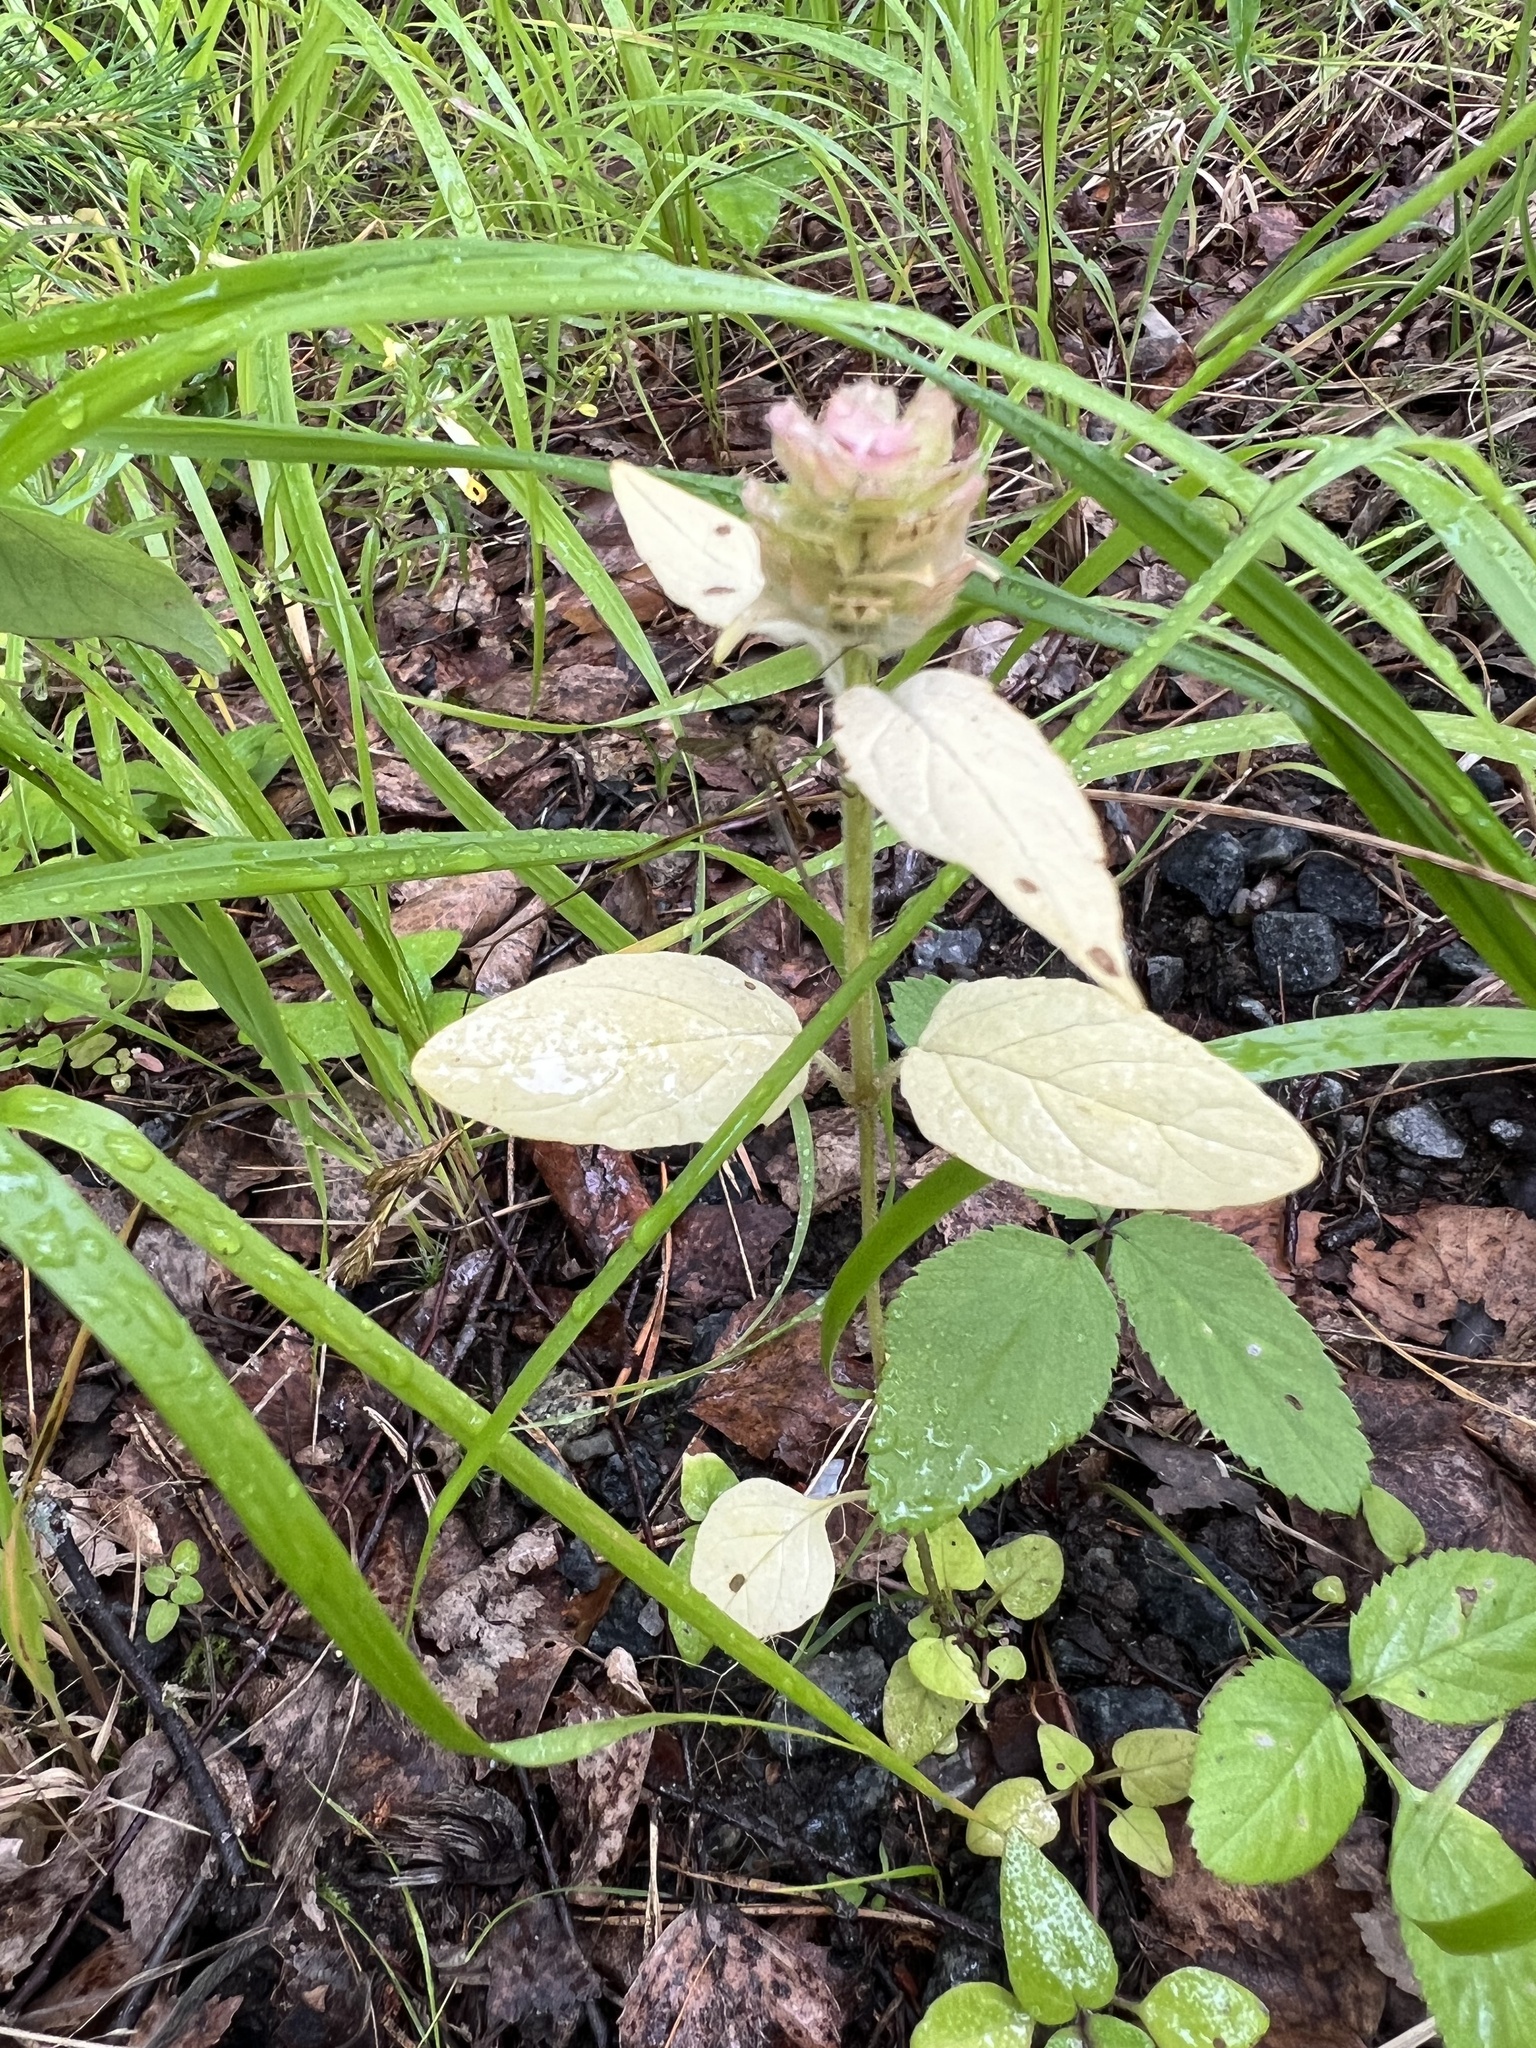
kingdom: Plantae
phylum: Tracheophyta
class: Magnoliopsida
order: Lamiales
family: Lamiaceae
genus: Prunella
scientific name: Prunella vulgaris
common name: Heal-all
